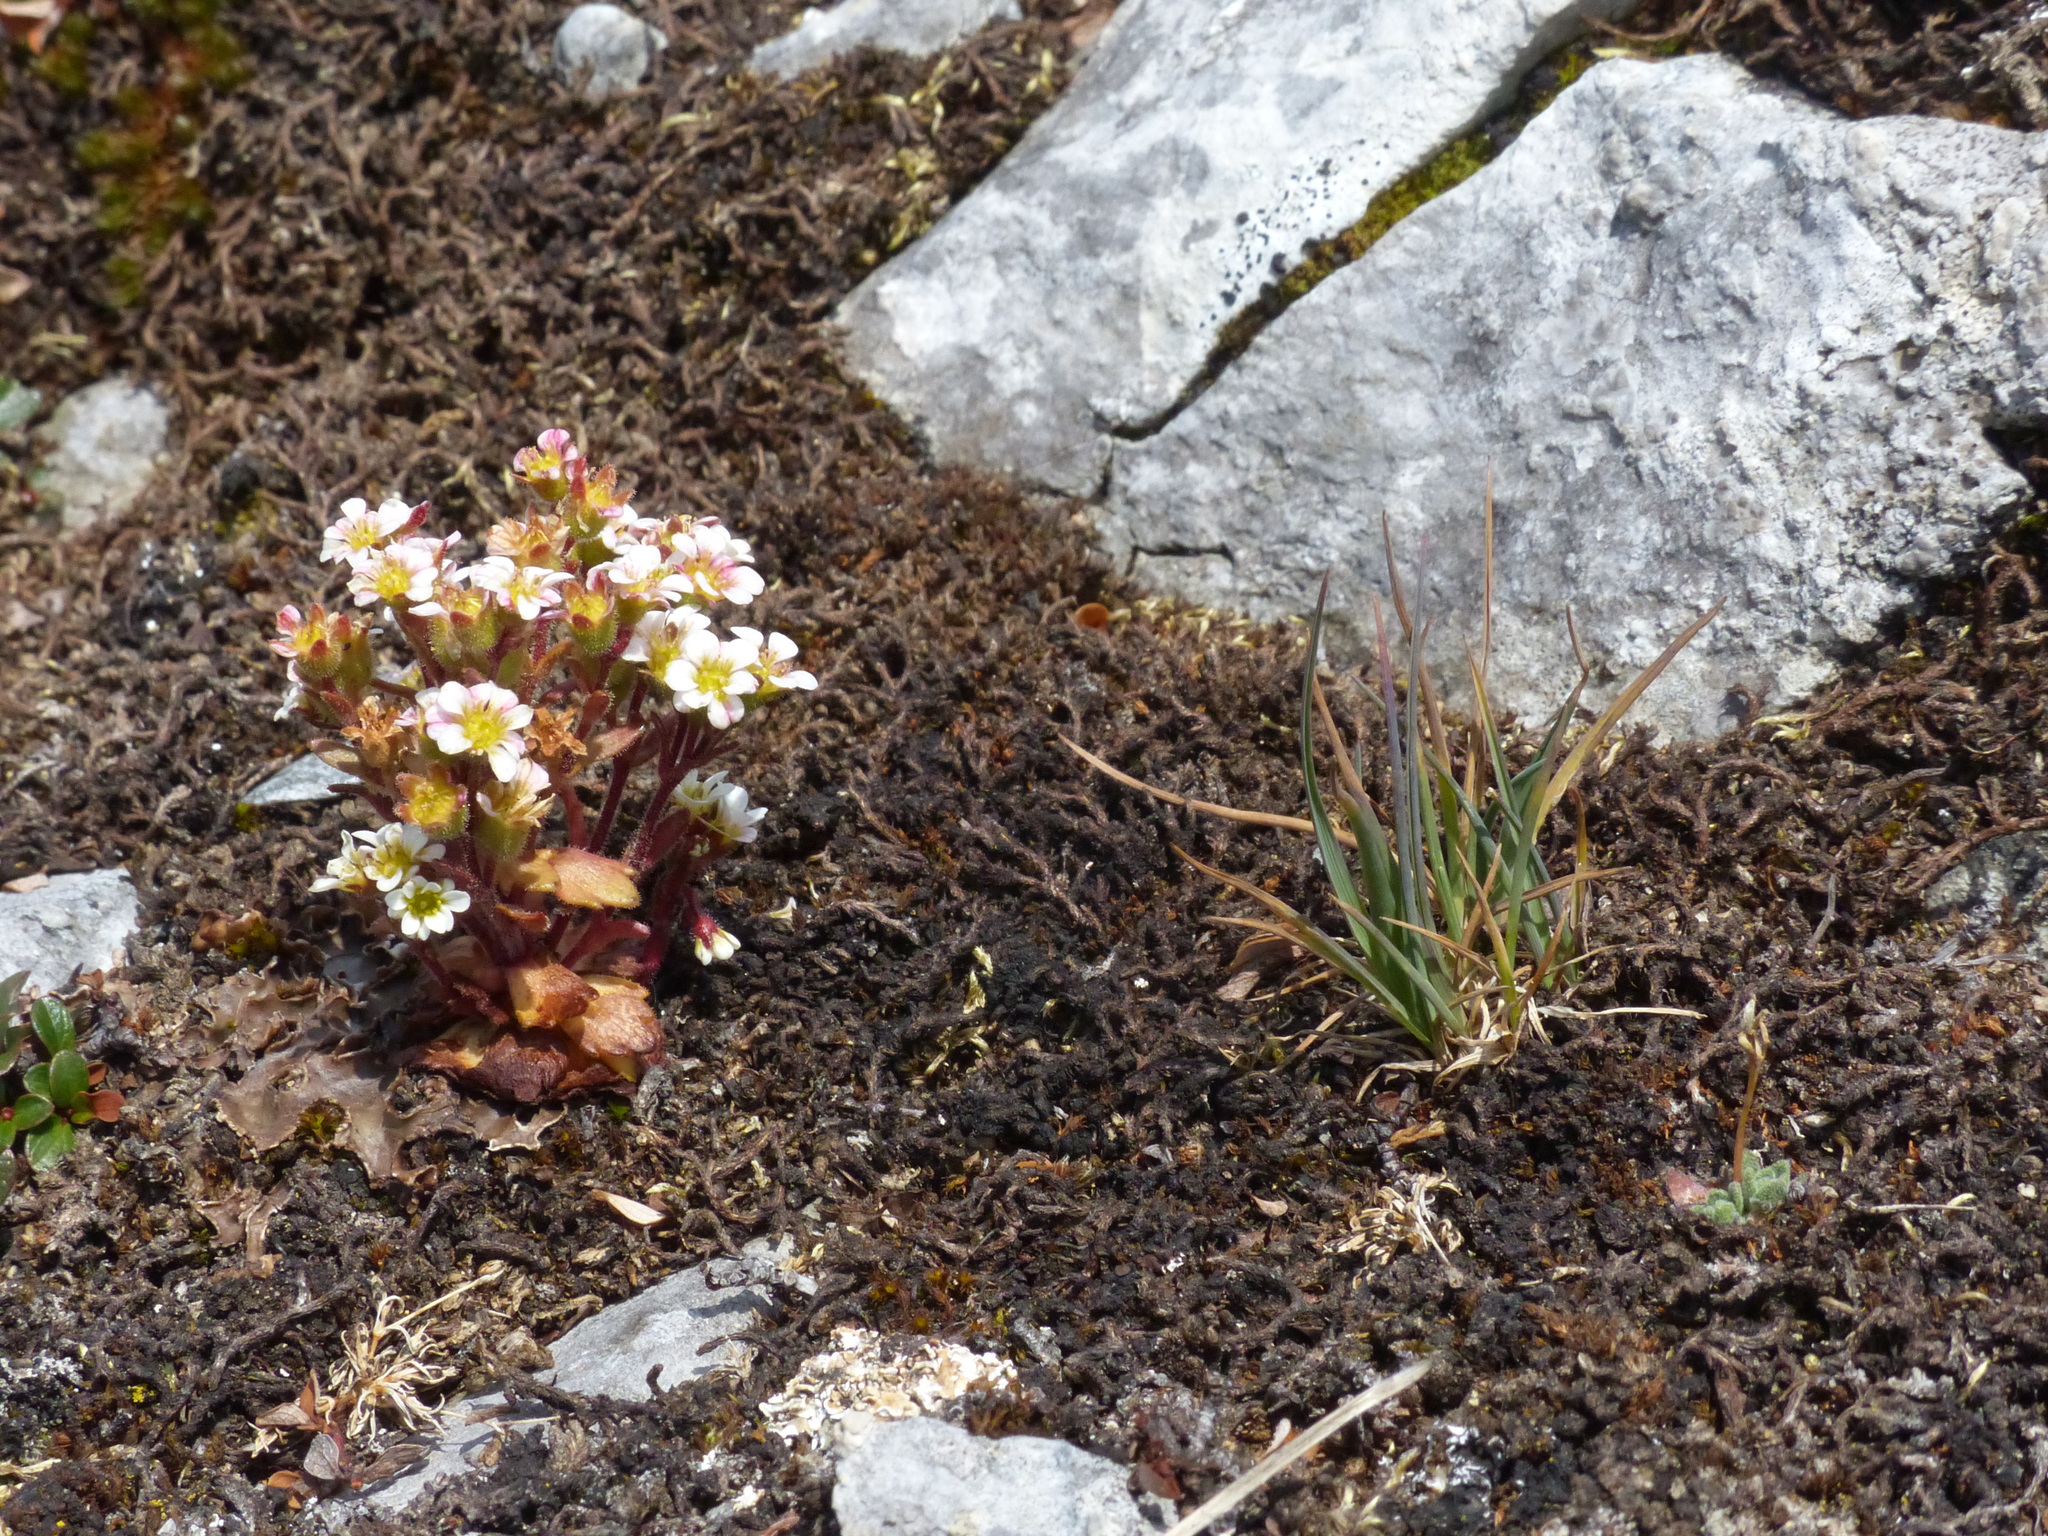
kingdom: Plantae
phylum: Tracheophyta
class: Magnoliopsida
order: Saxifragales
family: Saxifragaceae
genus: Saxifraga
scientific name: Saxifraga adscendens
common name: Ascending saxifrage
